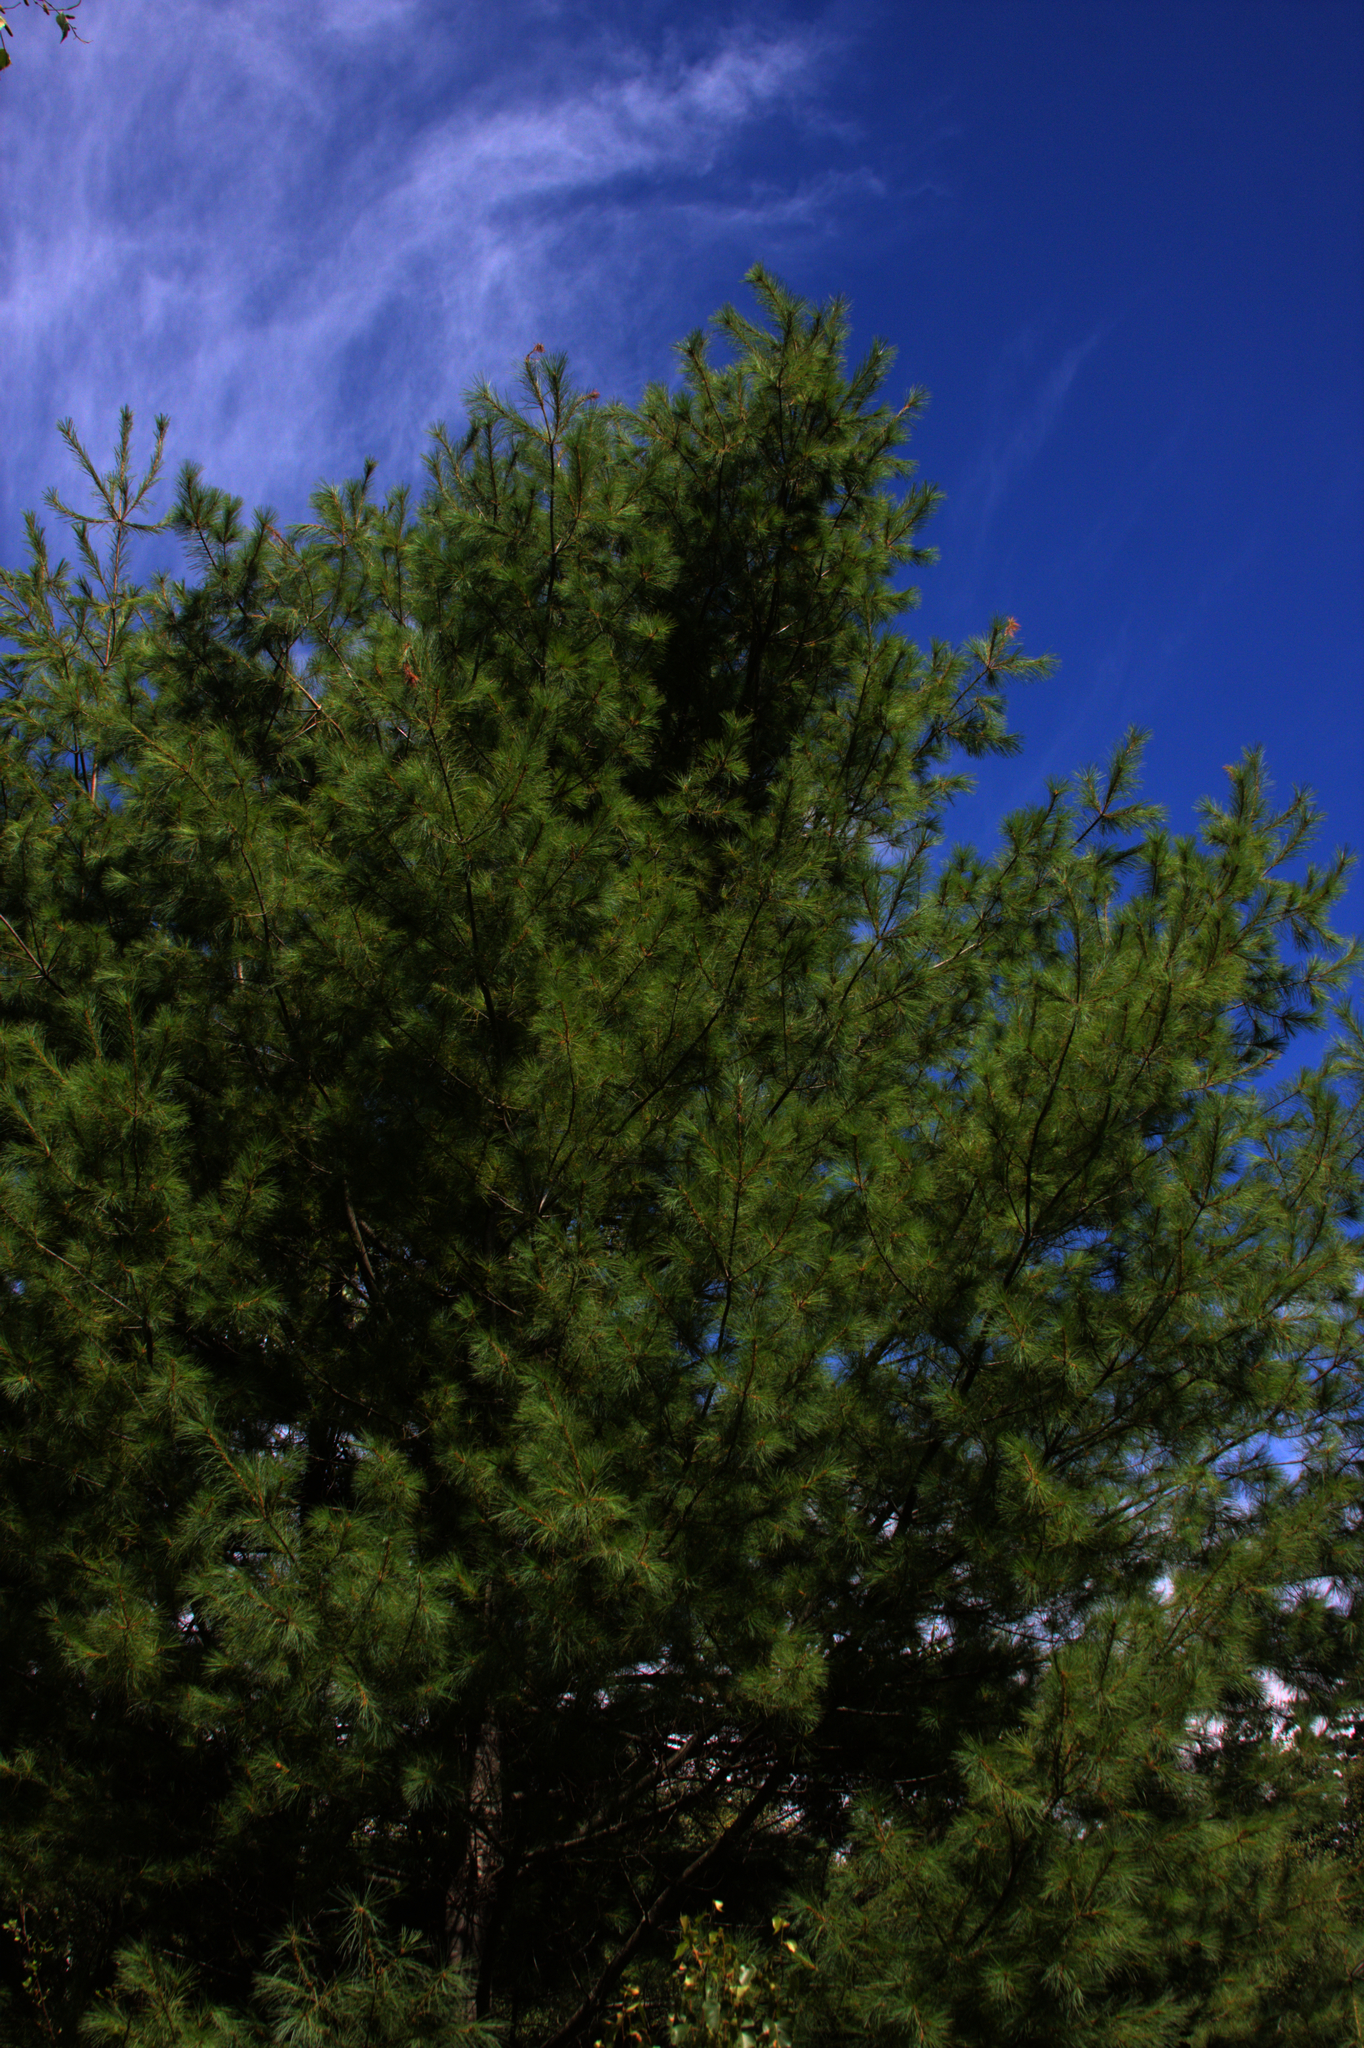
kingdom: Plantae
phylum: Tracheophyta
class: Pinopsida
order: Pinales
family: Pinaceae
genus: Pinus
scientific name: Pinus strobus
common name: Weymouth pine
